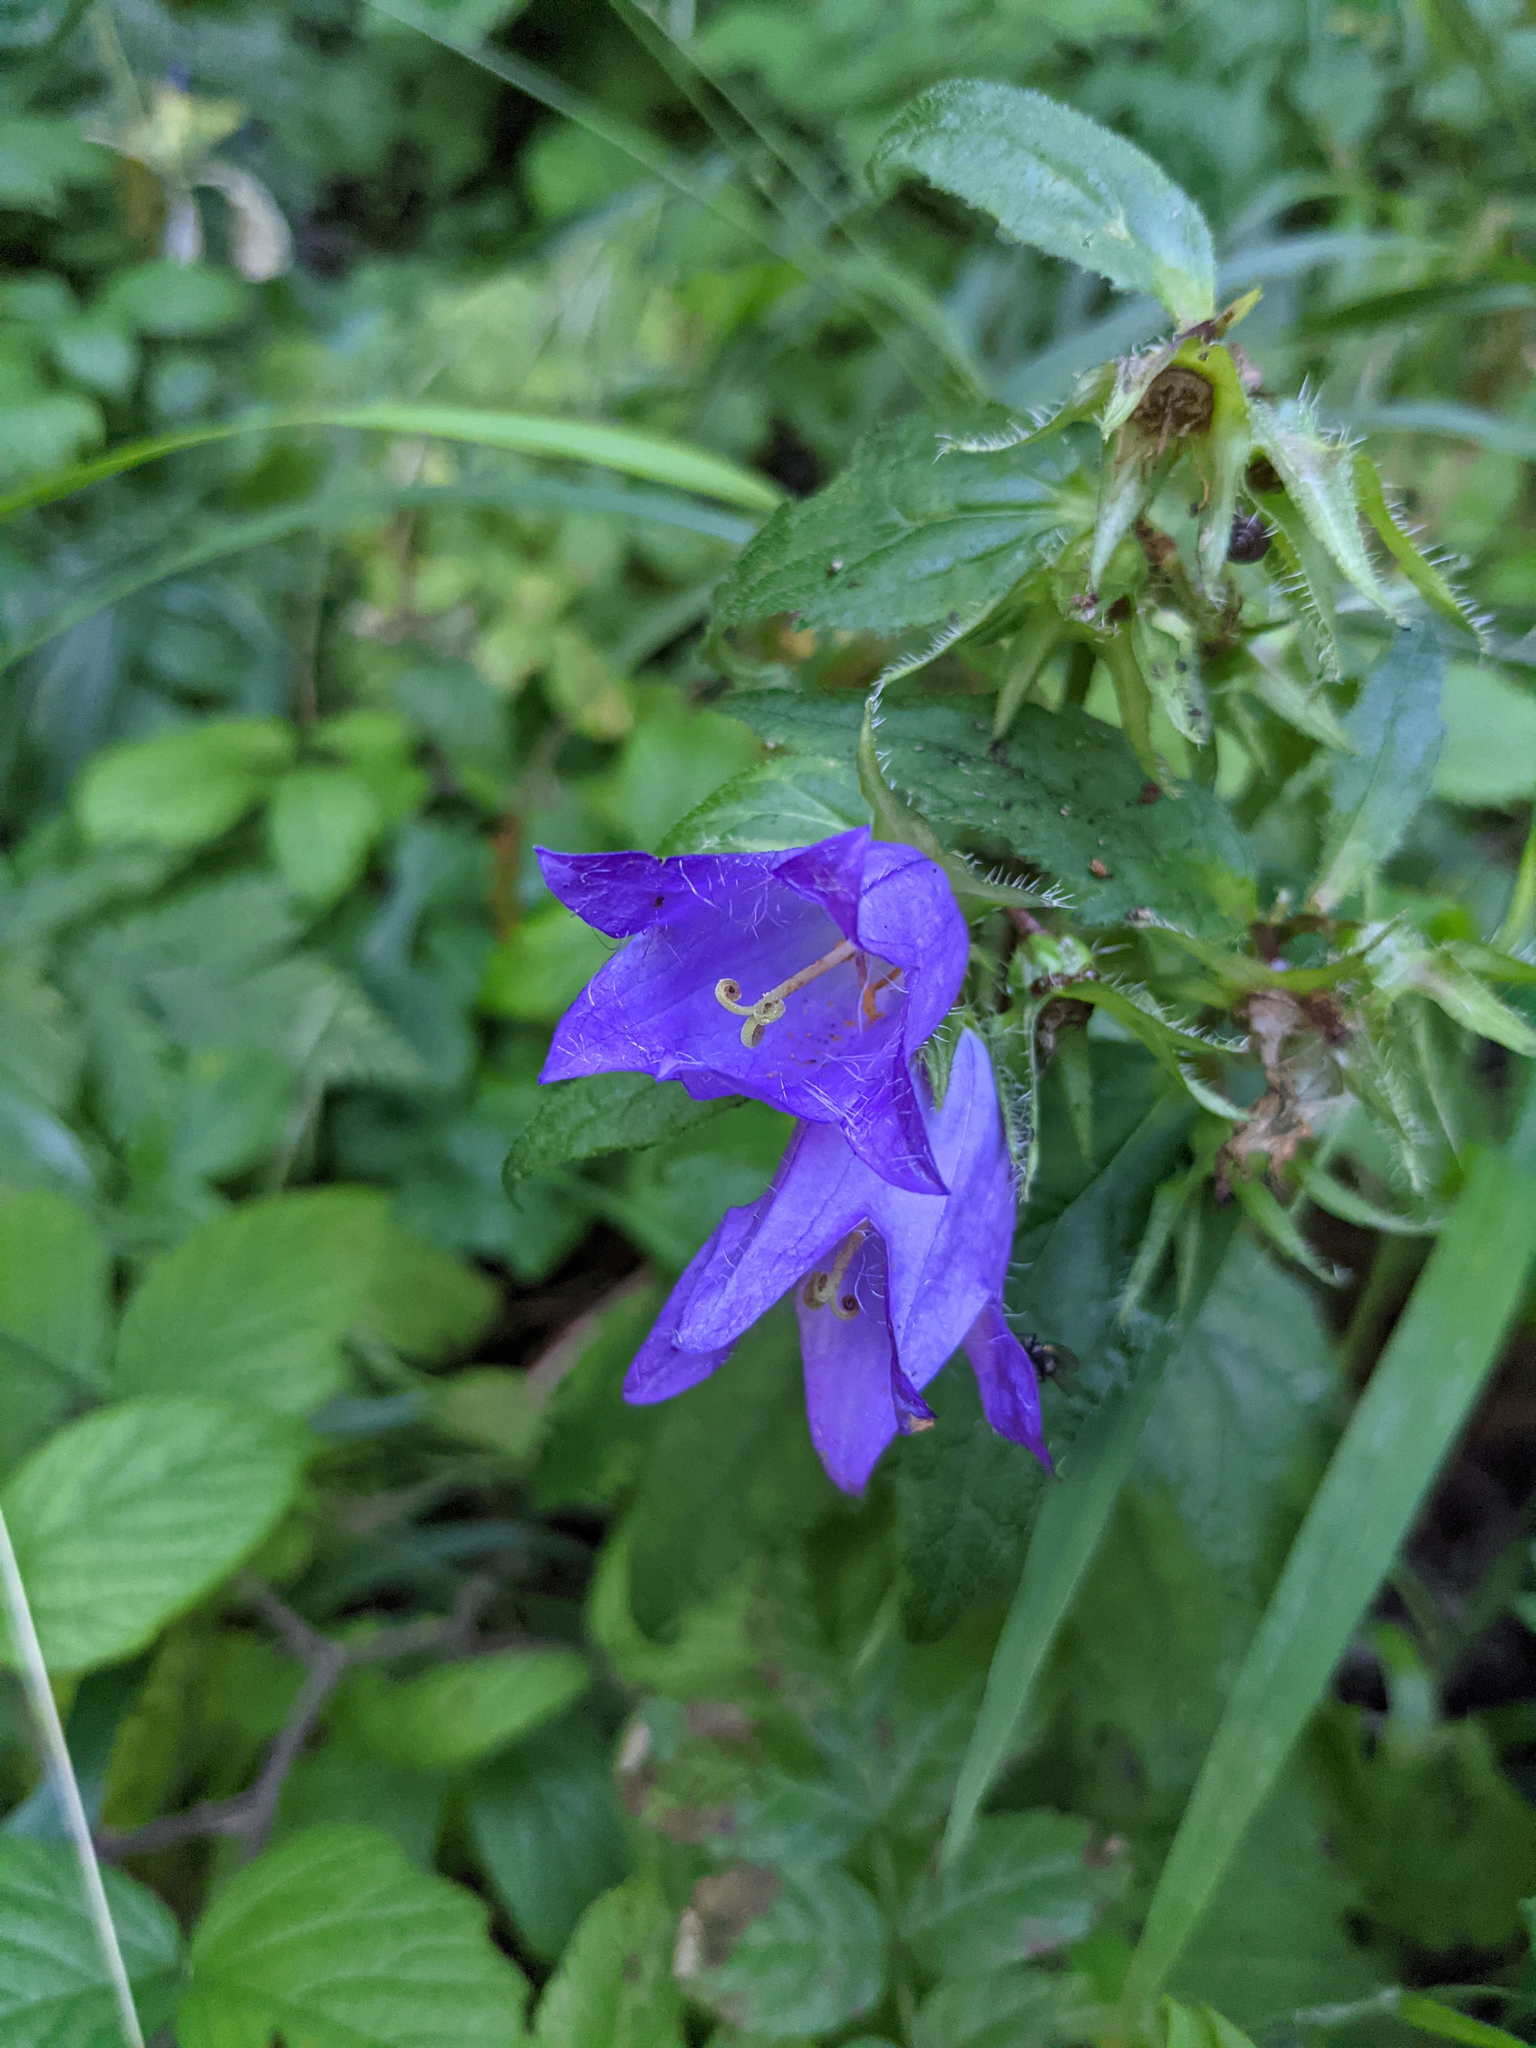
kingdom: Plantae
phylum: Tracheophyta
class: Magnoliopsida
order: Asterales
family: Campanulaceae
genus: Campanula
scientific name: Campanula trachelium
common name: Nettle-leaved bellflower
